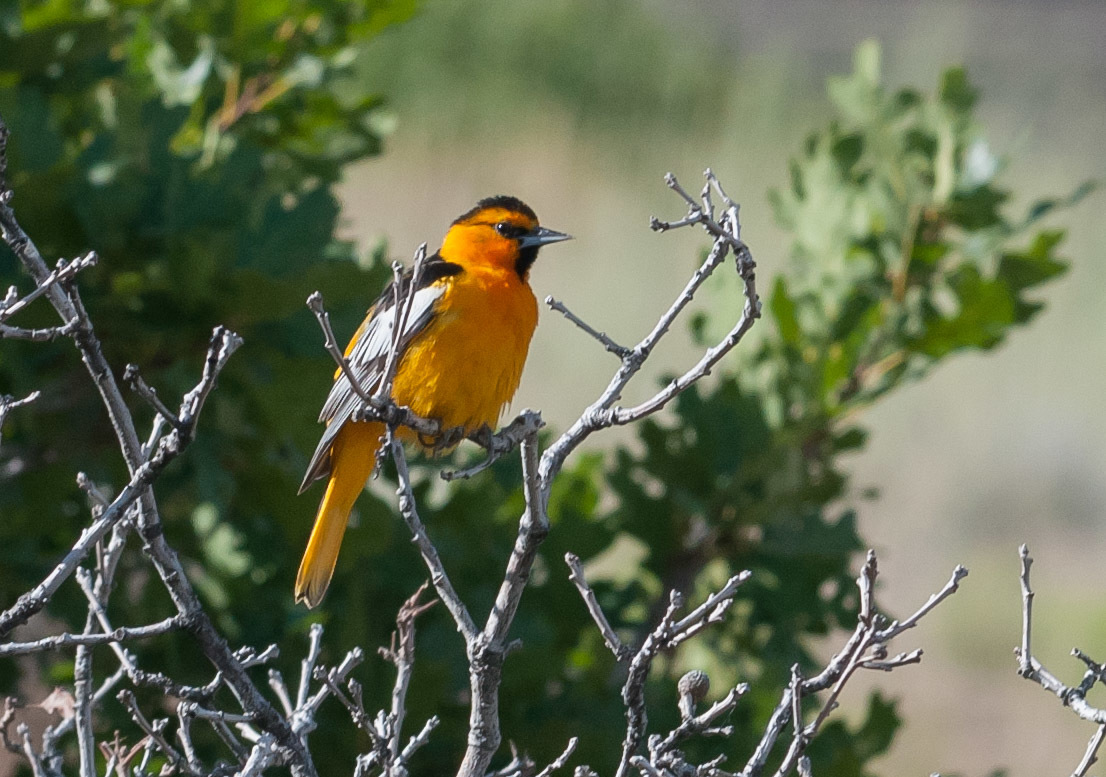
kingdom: Animalia
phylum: Chordata
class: Aves
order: Passeriformes
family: Icteridae
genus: Icterus
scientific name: Icterus bullockii
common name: Bullock's oriole
